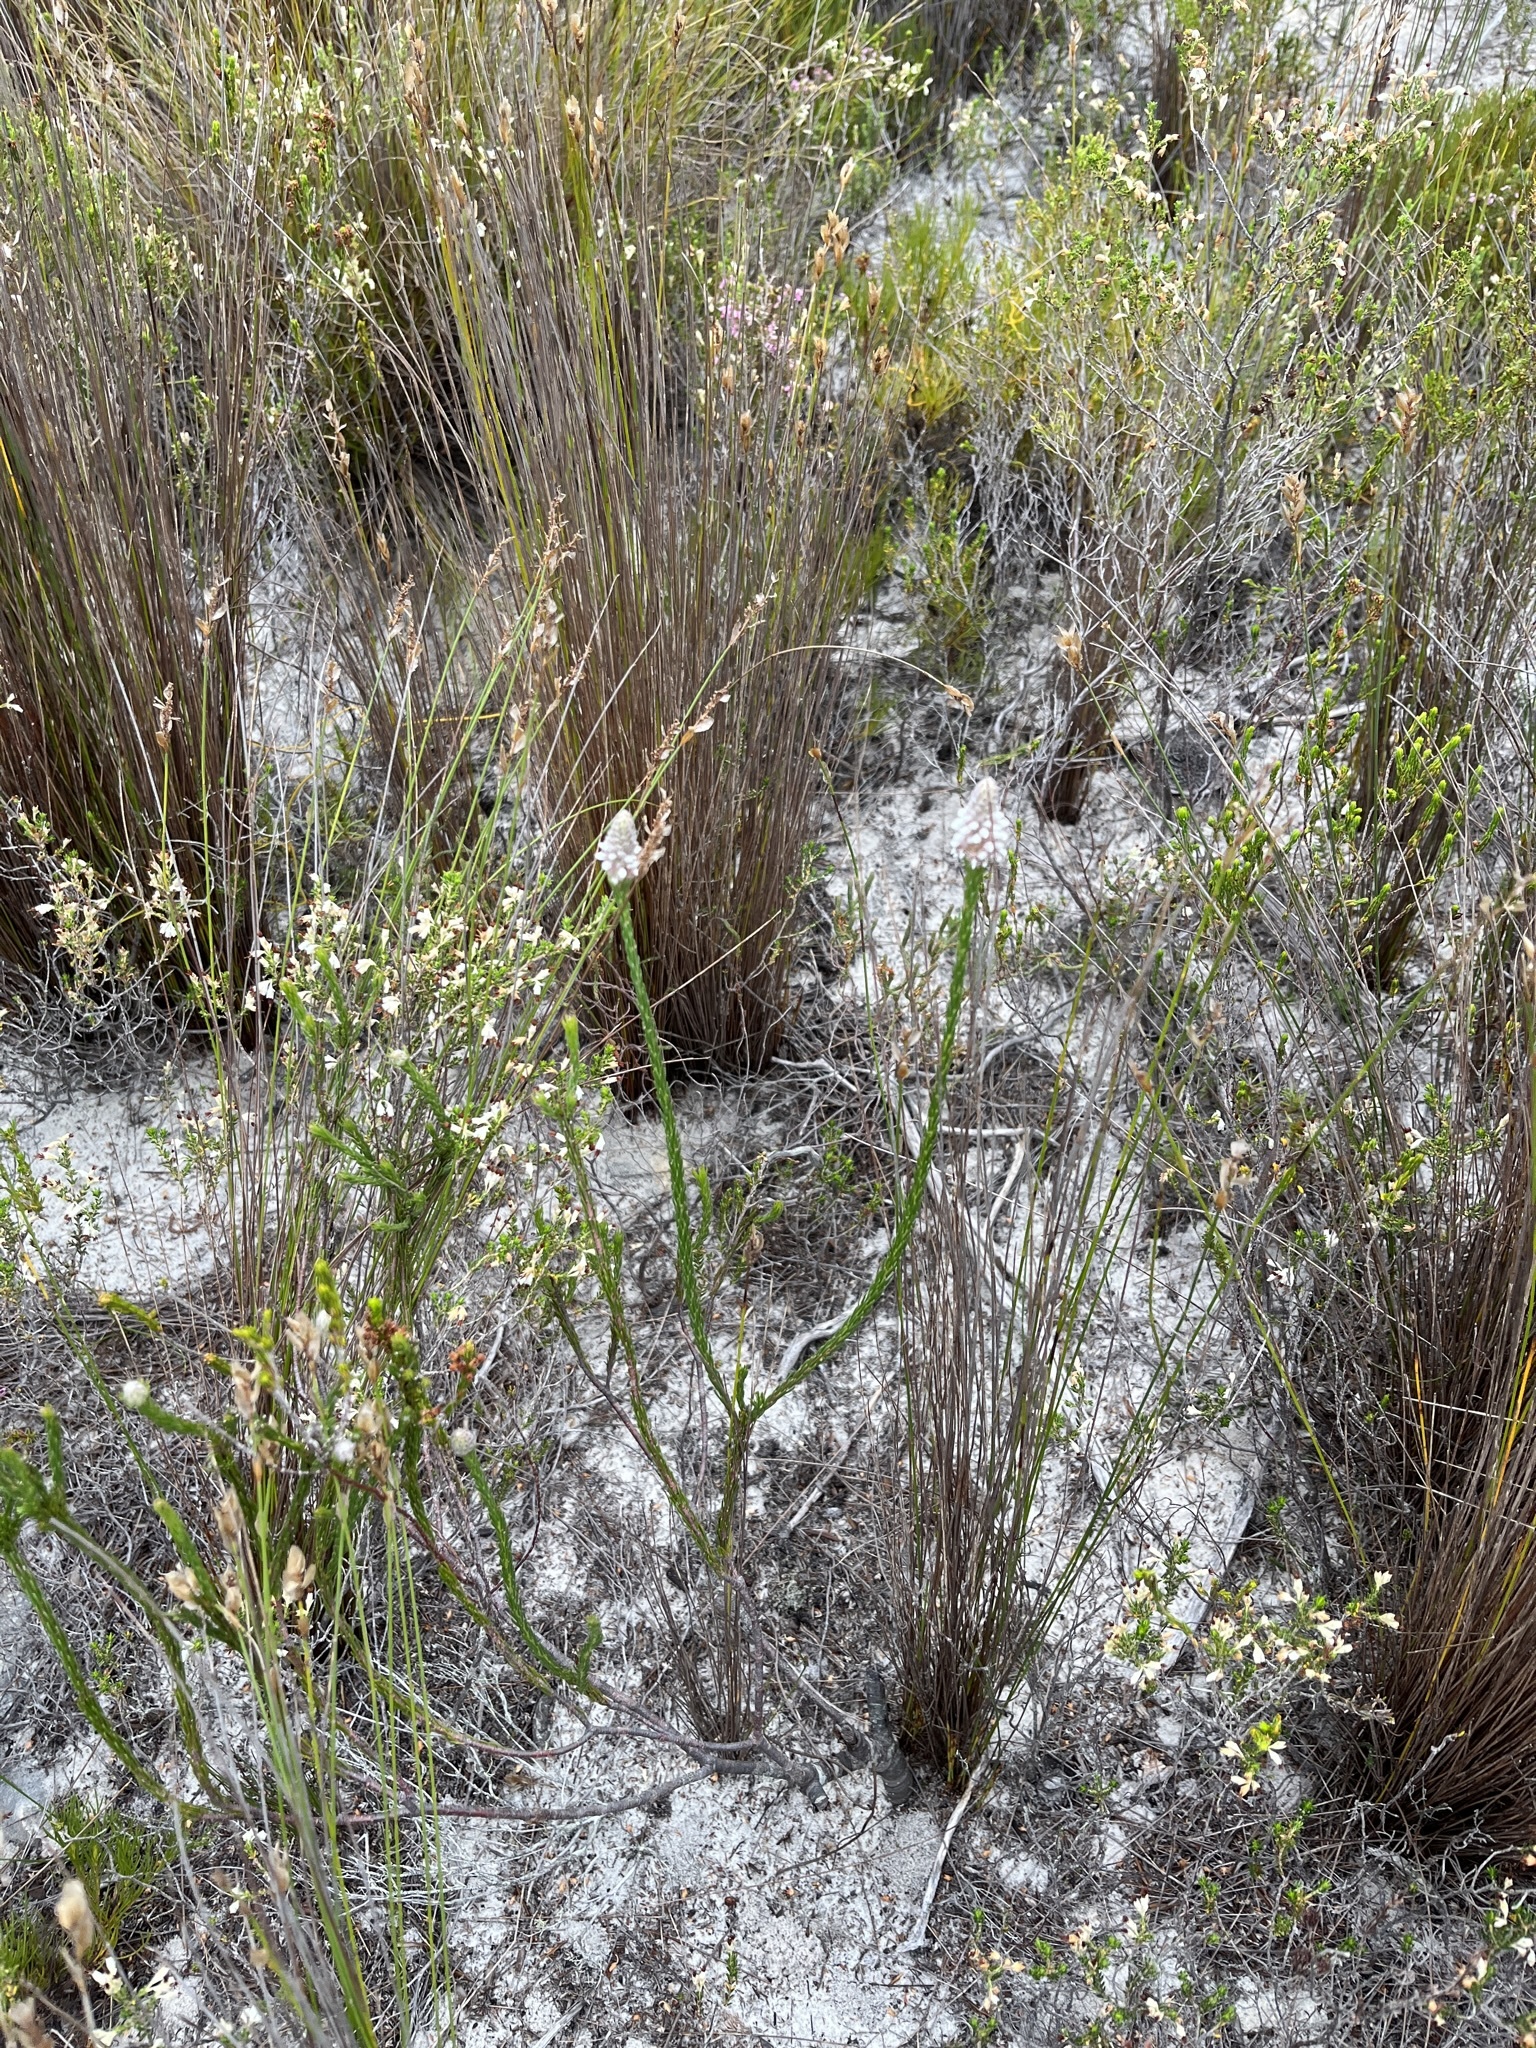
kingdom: Plantae
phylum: Tracheophyta
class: Magnoliopsida
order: Proteales
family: Proteaceae
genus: Spatalla
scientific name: Spatalla ericoides
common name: Erica-leaf spoon
